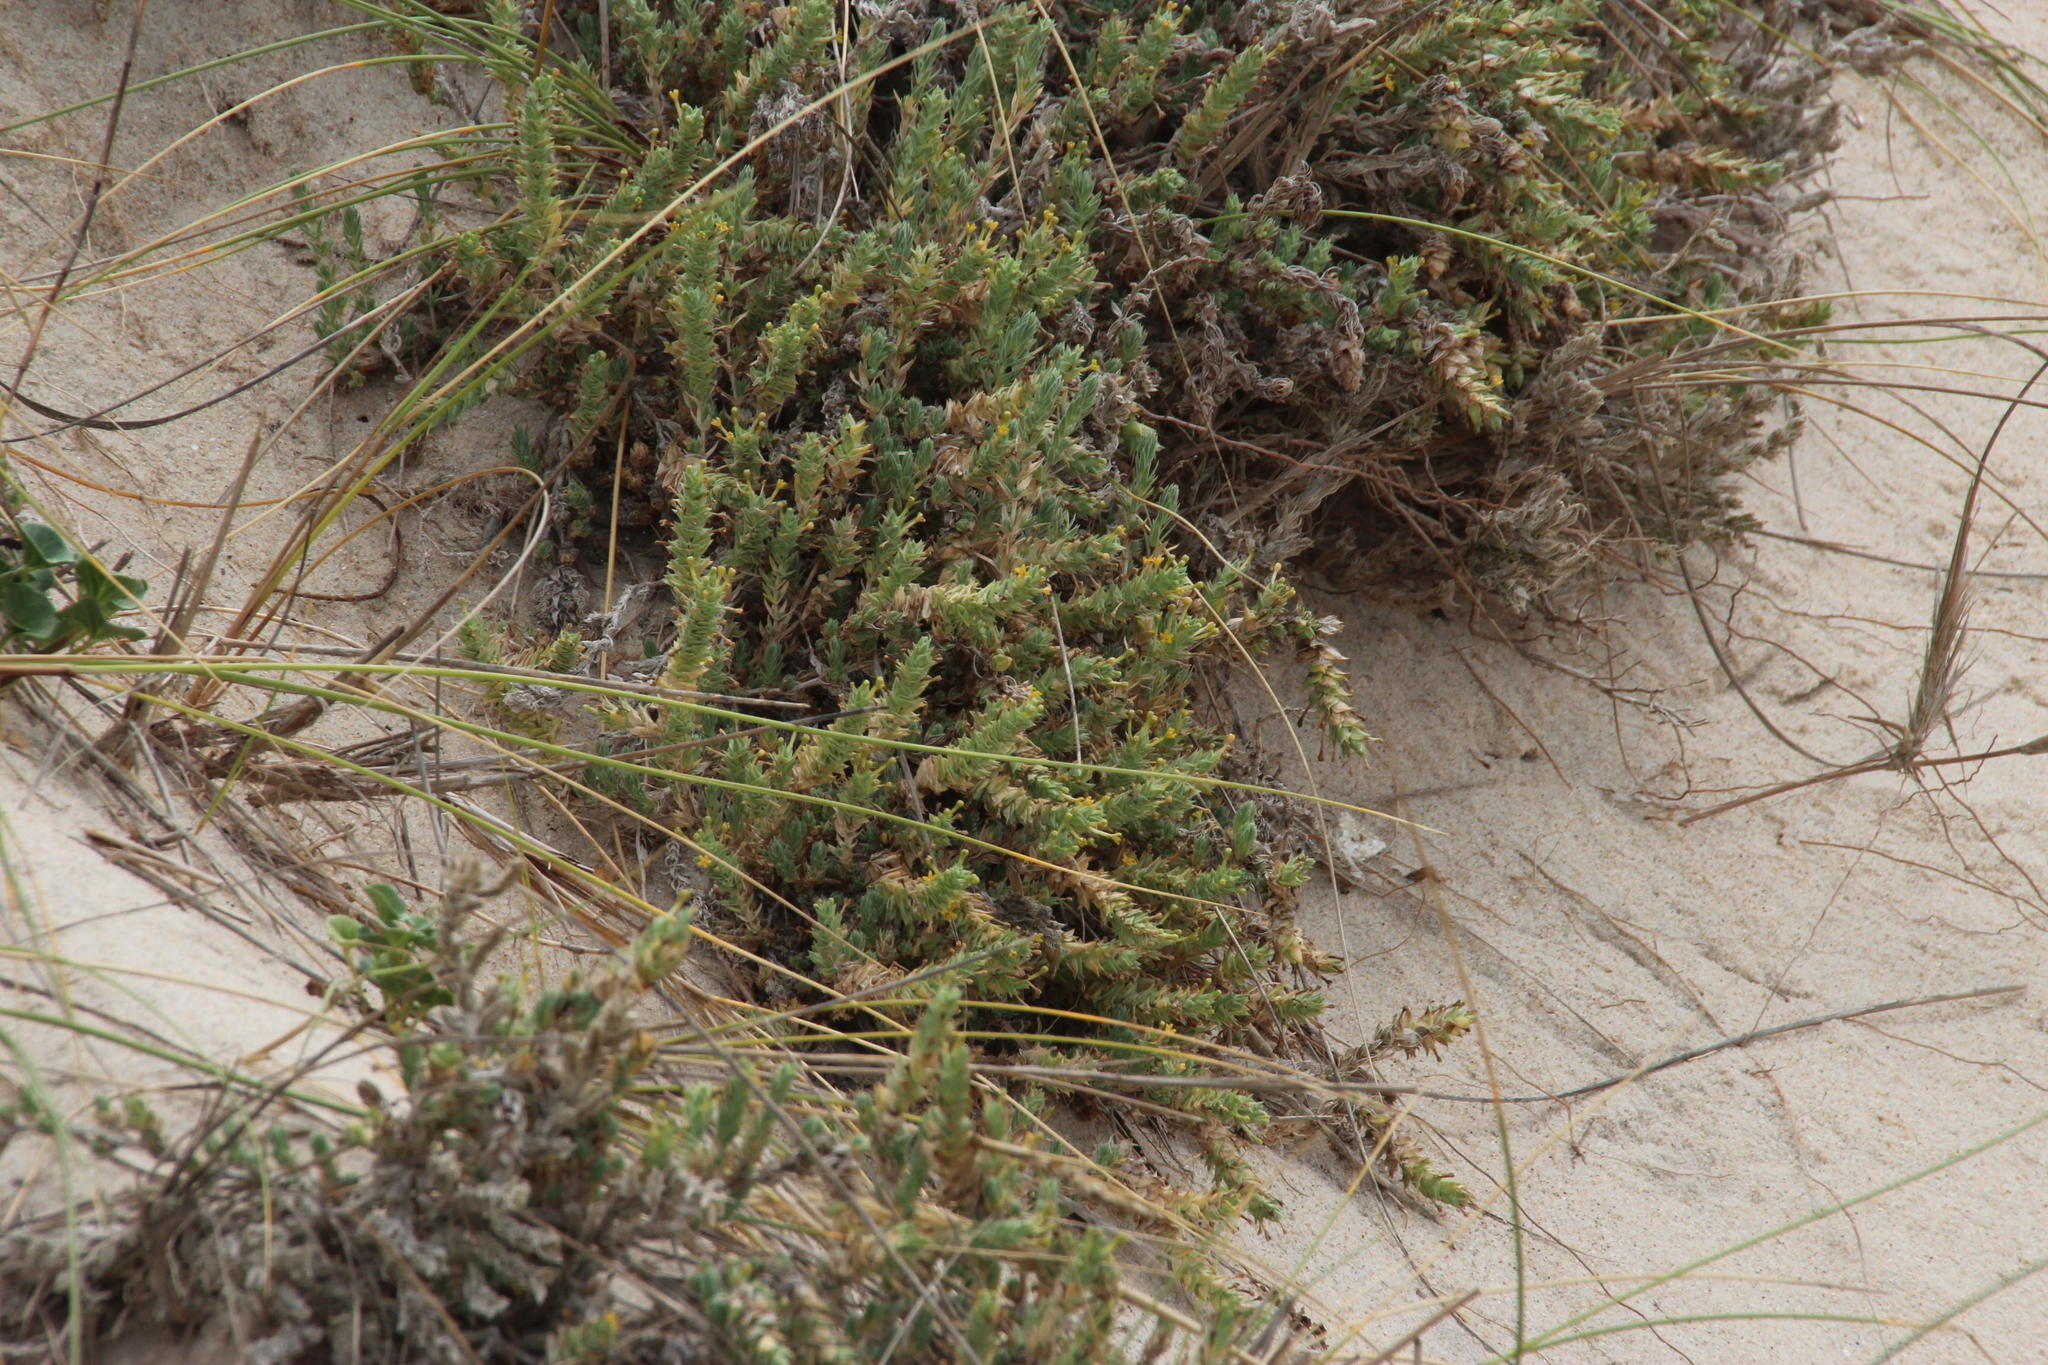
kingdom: Plantae
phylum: Tracheophyta
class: Magnoliopsida
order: Gentianales
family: Rubiaceae
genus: Crucianella
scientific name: Crucianella maritima
